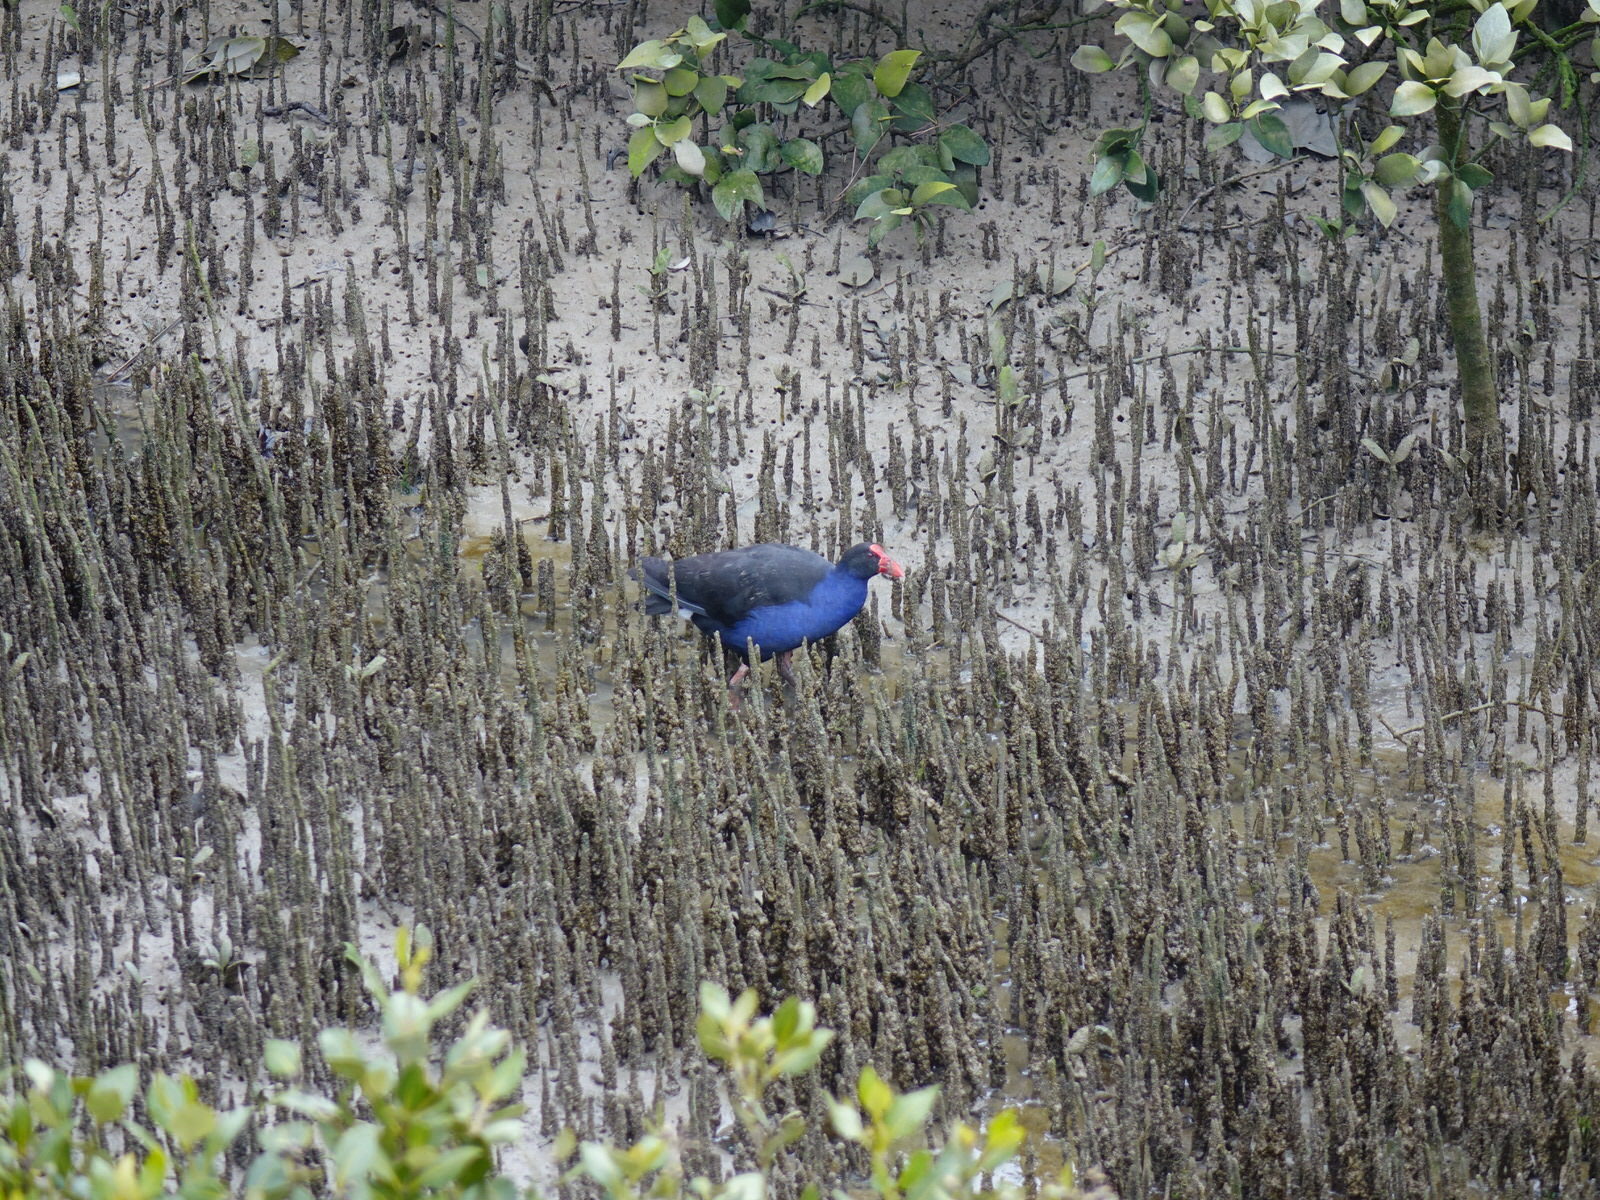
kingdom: Animalia
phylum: Chordata
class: Aves
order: Gruiformes
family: Rallidae
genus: Porphyrio
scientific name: Porphyrio melanotus
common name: Australasian swamphen
